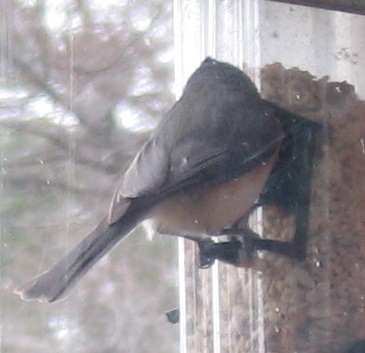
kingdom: Animalia
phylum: Chordata
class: Aves
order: Passeriformes
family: Paridae
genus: Baeolophus
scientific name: Baeolophus bicolor
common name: Tufted titmouse
